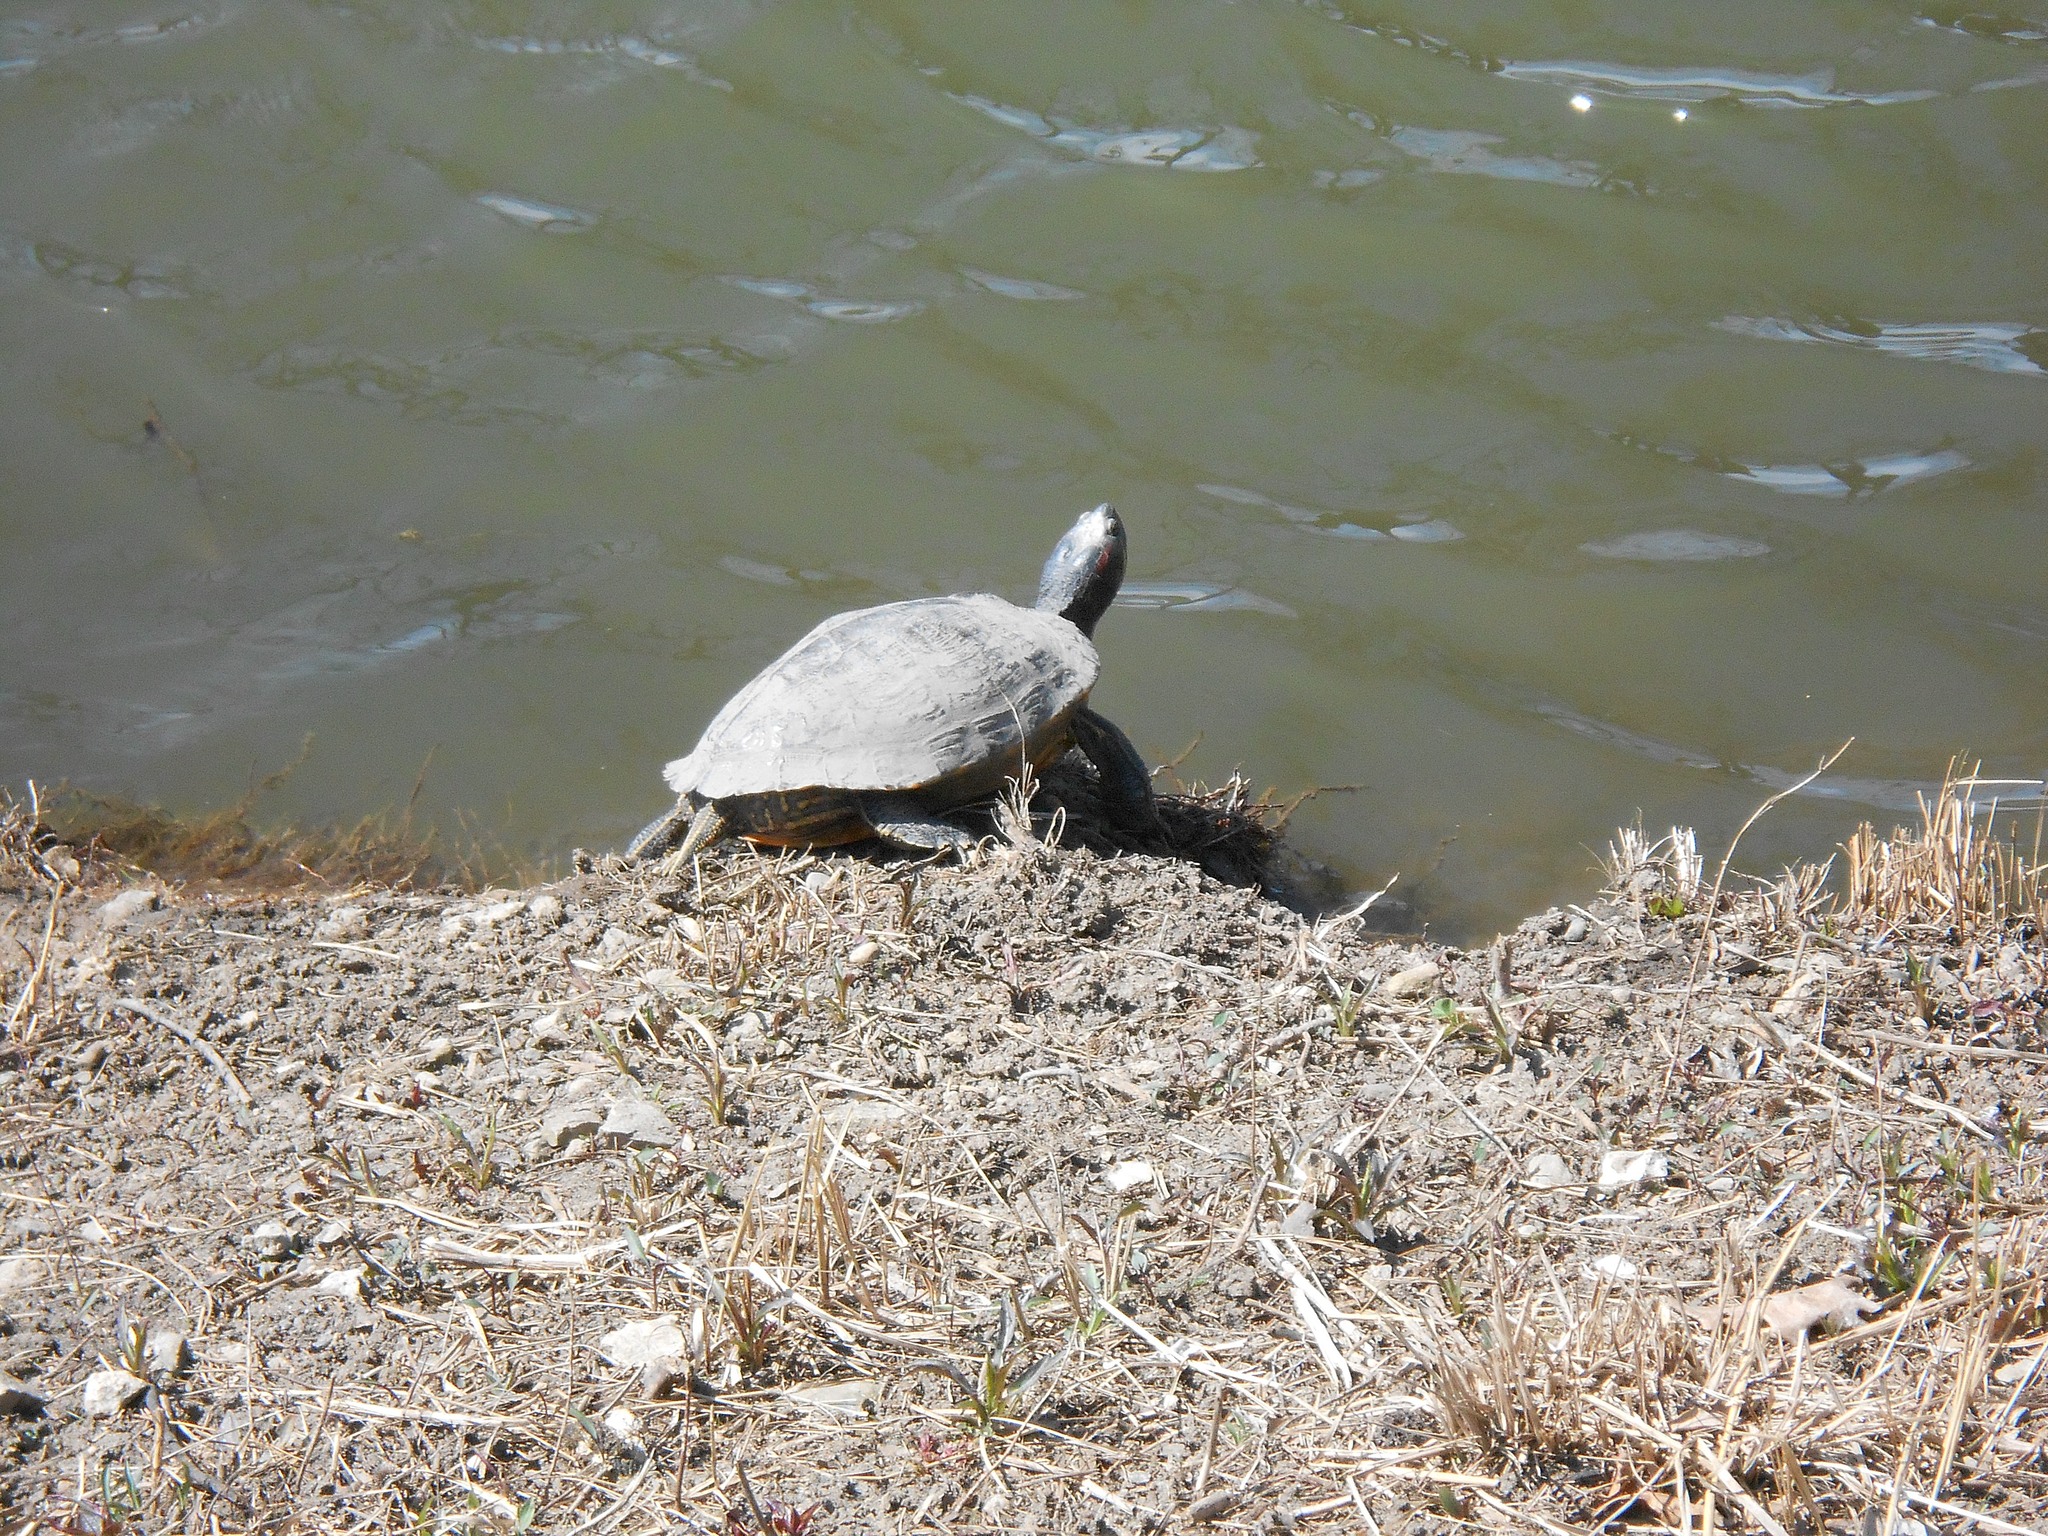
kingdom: Animalia
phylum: Chordata
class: Testudines
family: Emydidae
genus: Trachemys
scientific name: Trachemys scripta
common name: Slider
